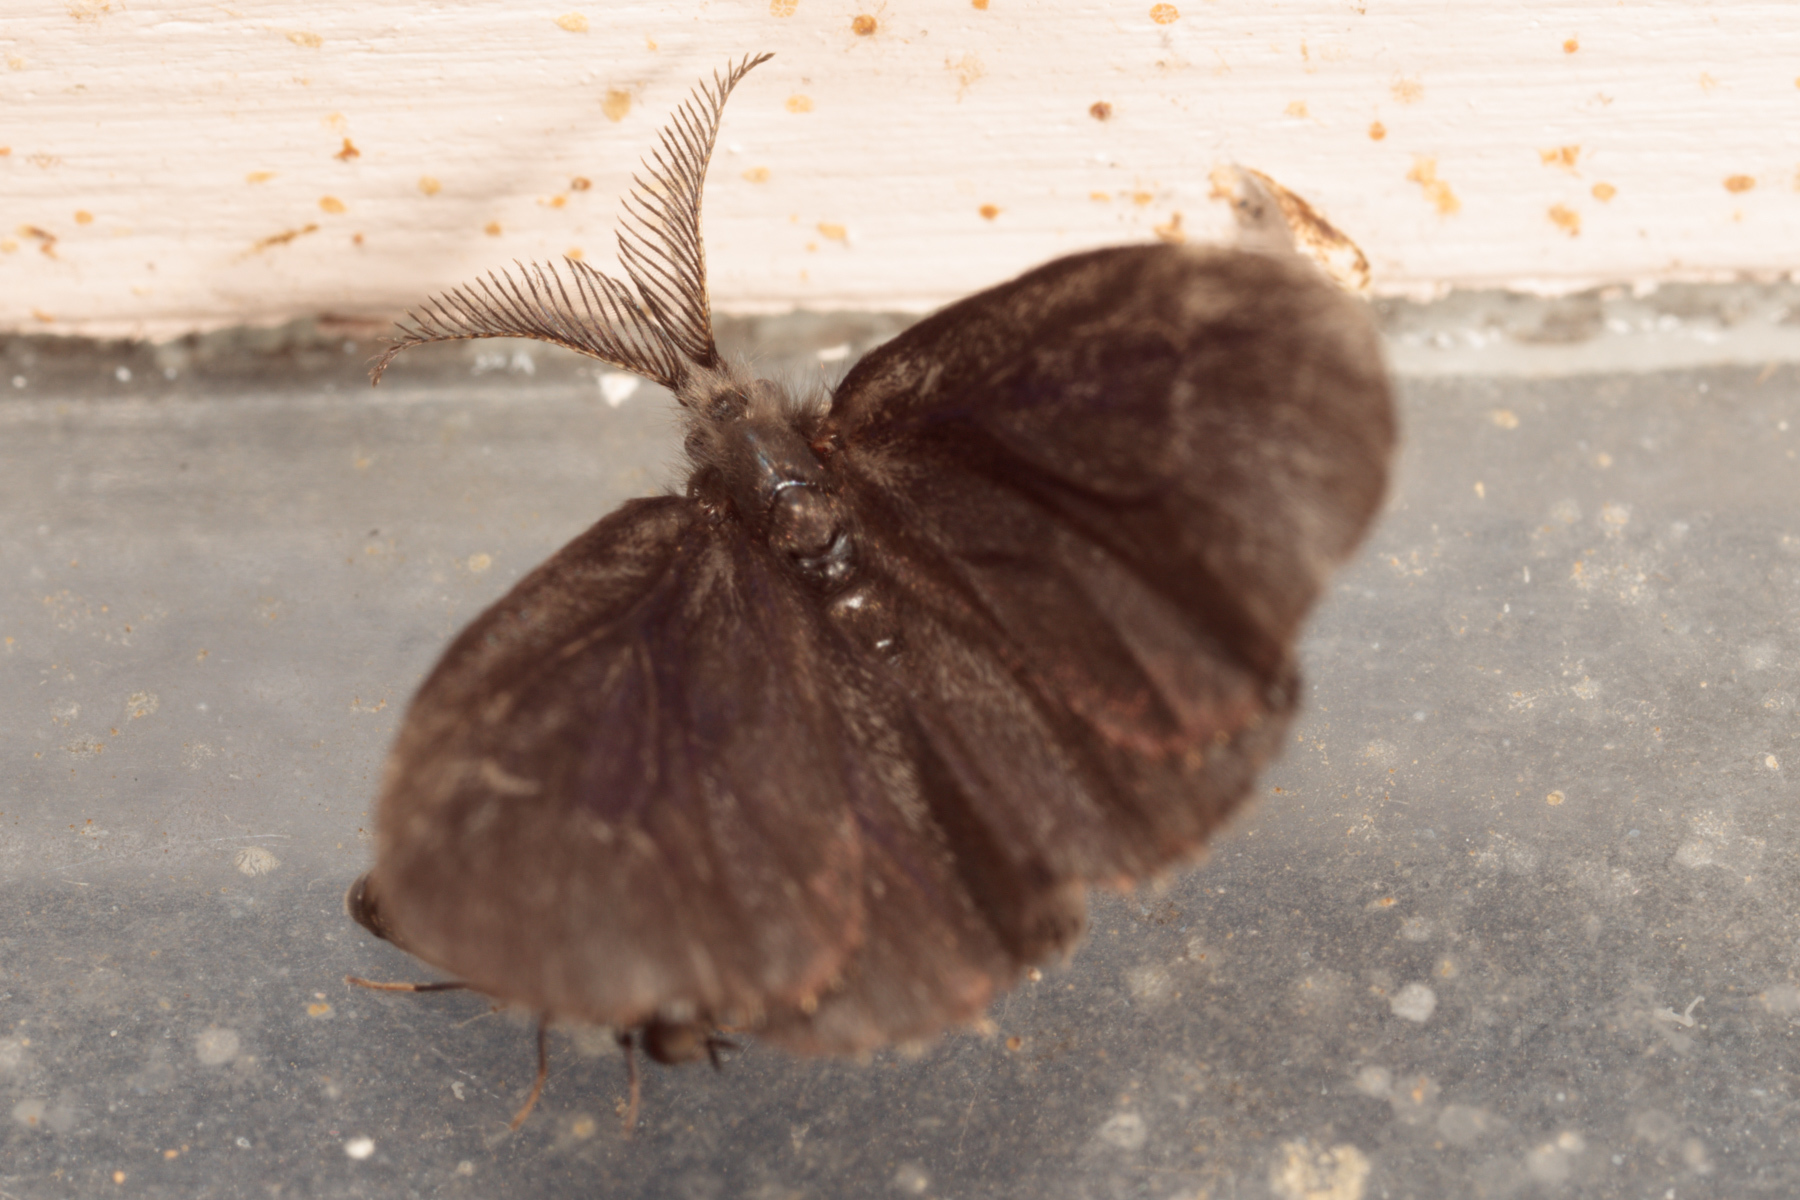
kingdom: Animalia
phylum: Arthropoda
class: Insecta
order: Lepidoptera
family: Psychidae
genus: Cryptothelea
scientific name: Cryptothelea nigrita
